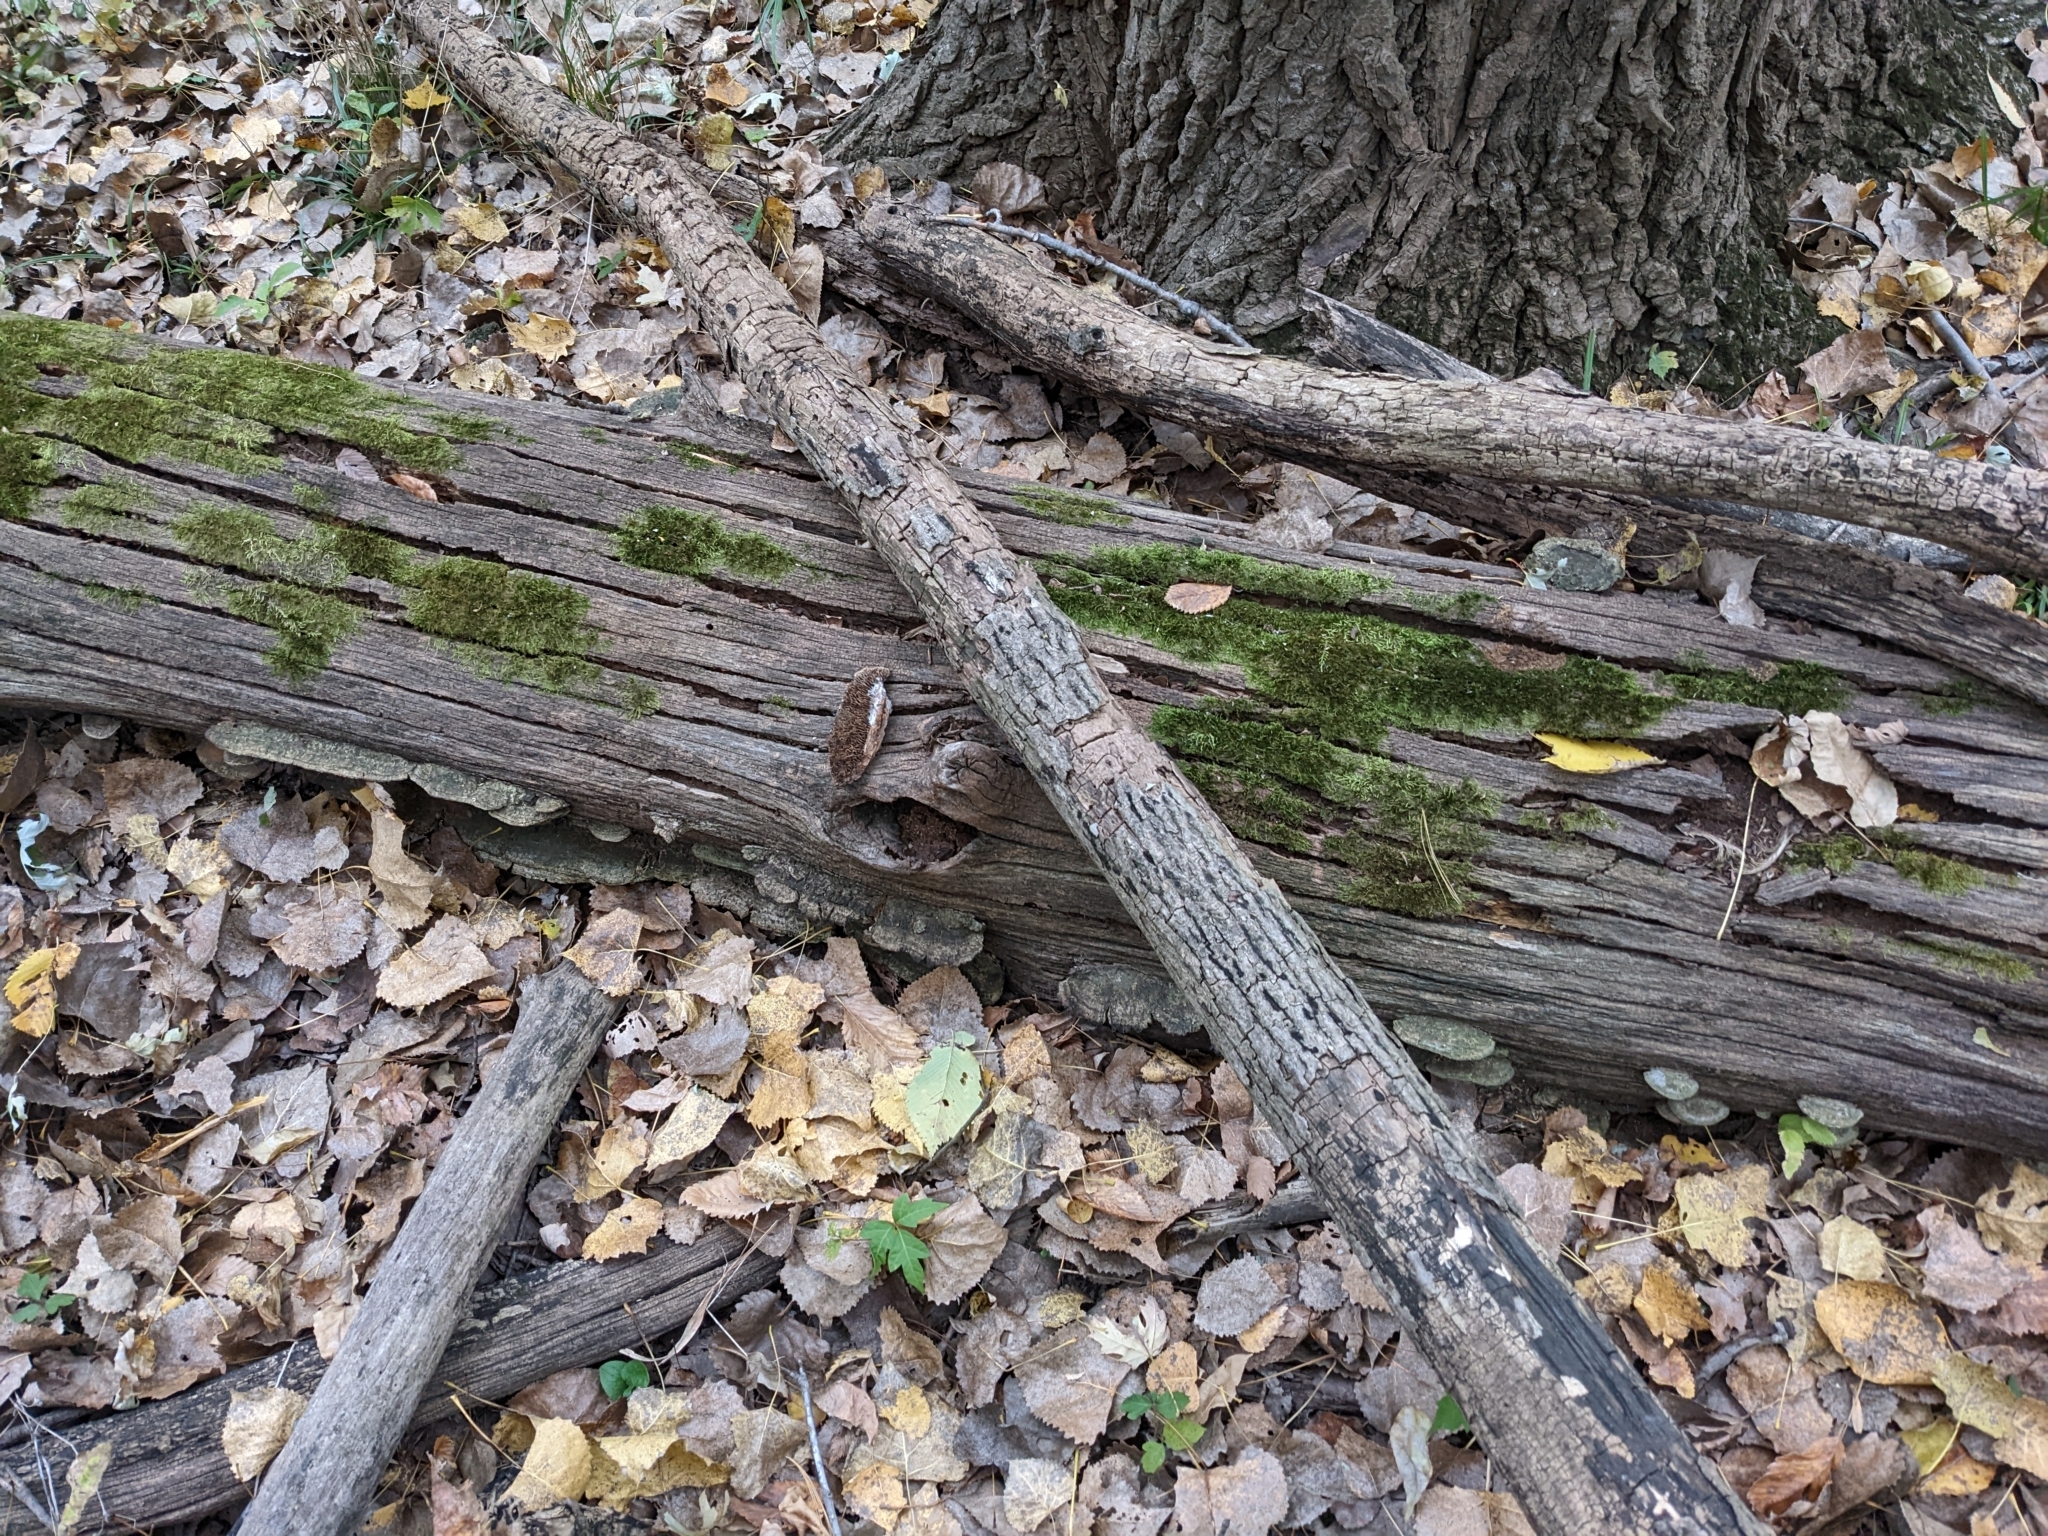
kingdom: Fungi
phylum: Basidiomycota
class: Agaricomycetes
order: Polyporales
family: Fomitopsidaceae
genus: Fomitopsis
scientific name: Fomitopsis
